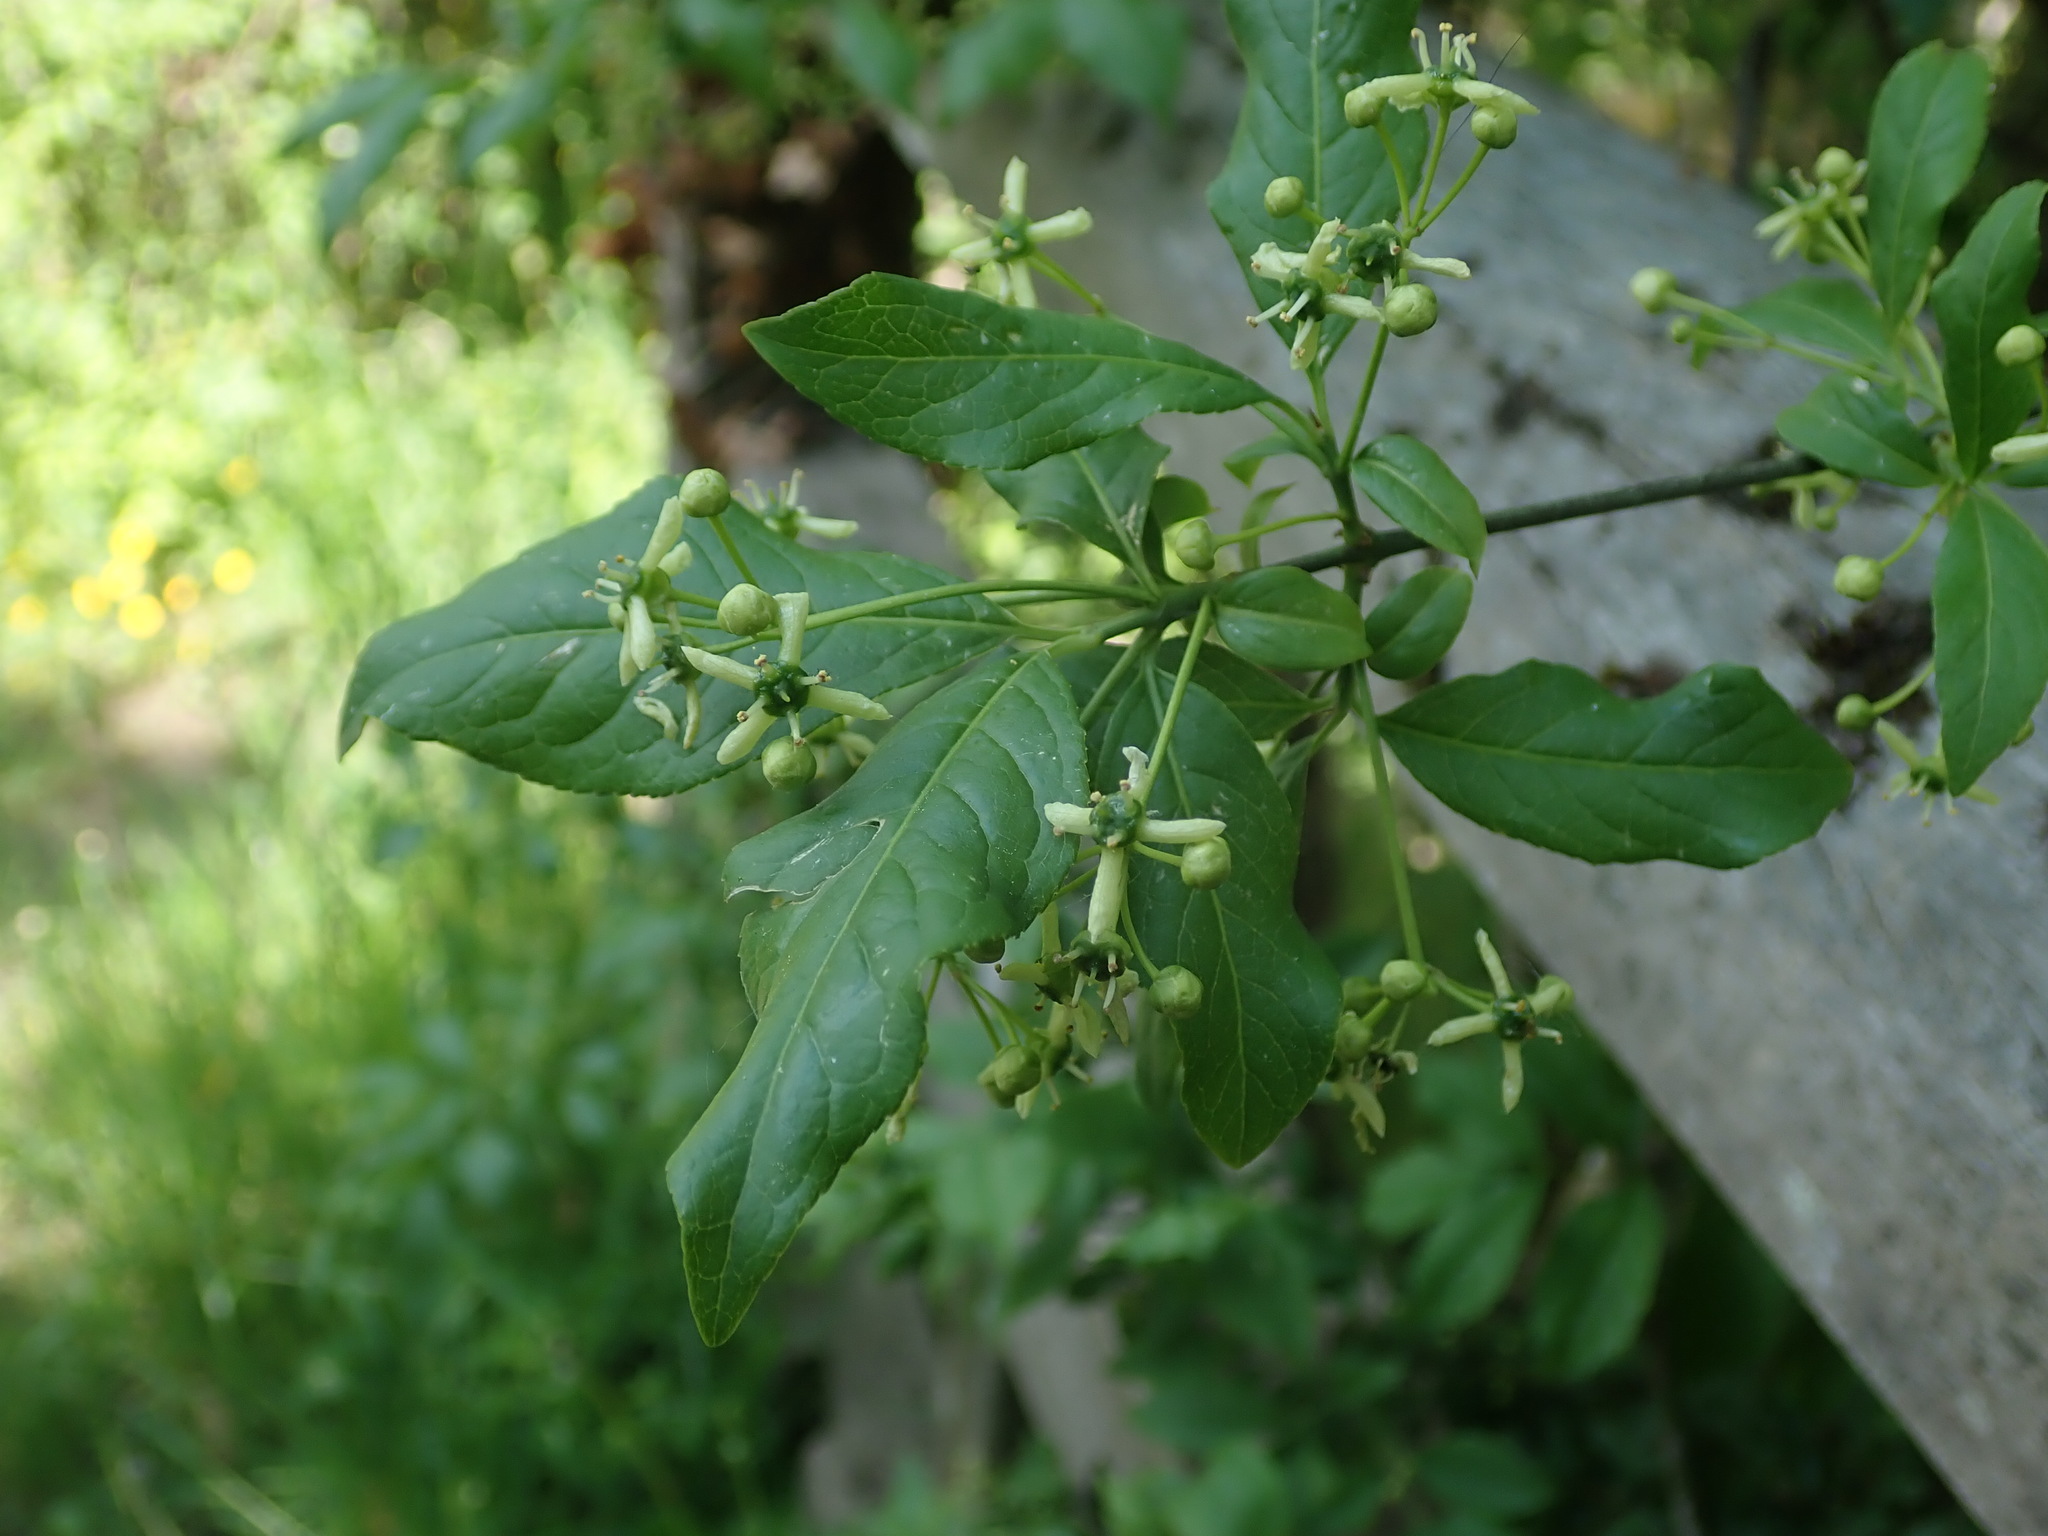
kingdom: Plantae
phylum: Tracheophyta
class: Magnoliopsida
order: Celastrales
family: Celastraceae
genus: Euonymus
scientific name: Euonymus europaeus
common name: Spindle
